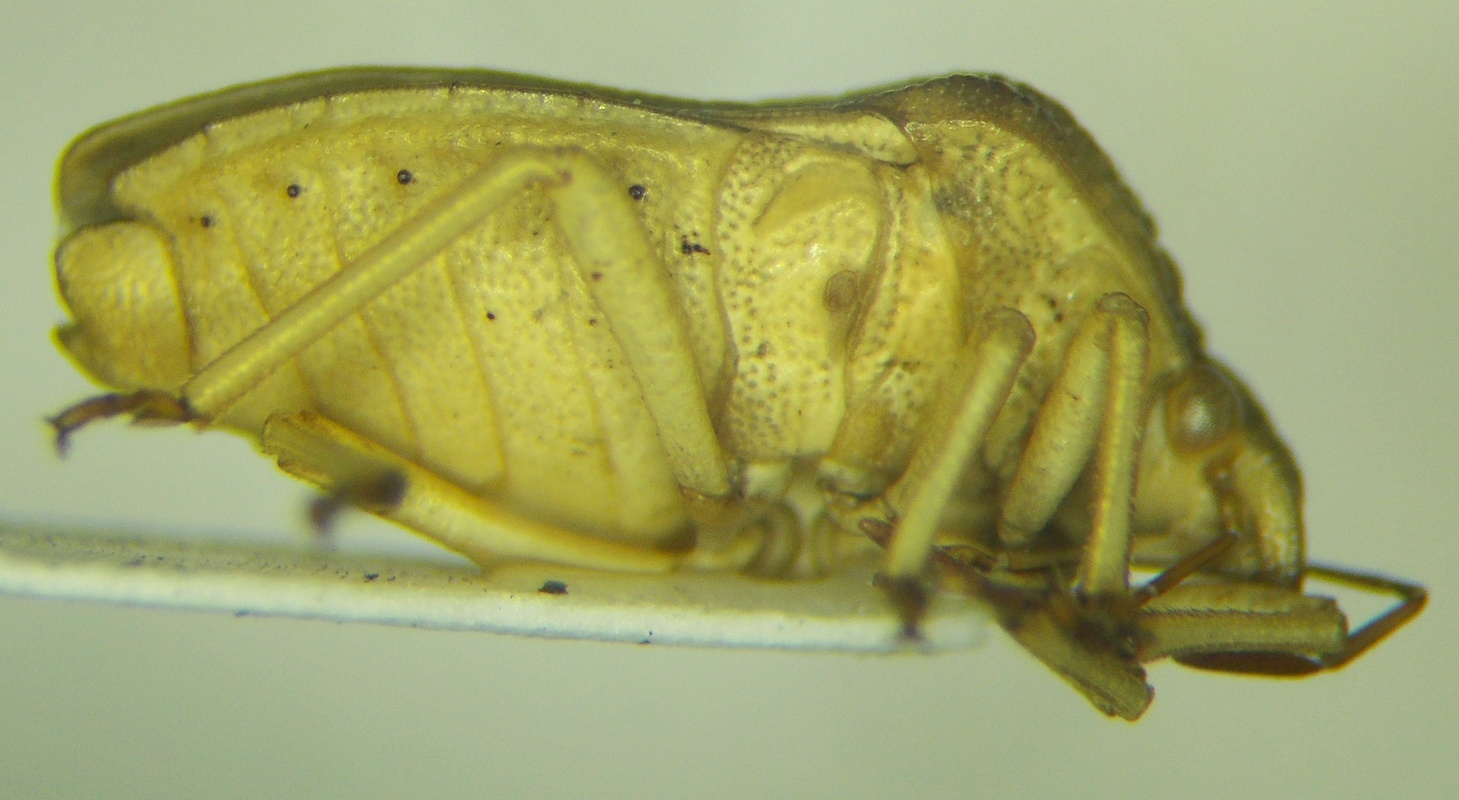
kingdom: Animalia
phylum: Arthropoda
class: Insecta
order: Hemiptera
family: Pentatomidae
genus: Tholagmus
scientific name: Tholagmus flavolineatus
